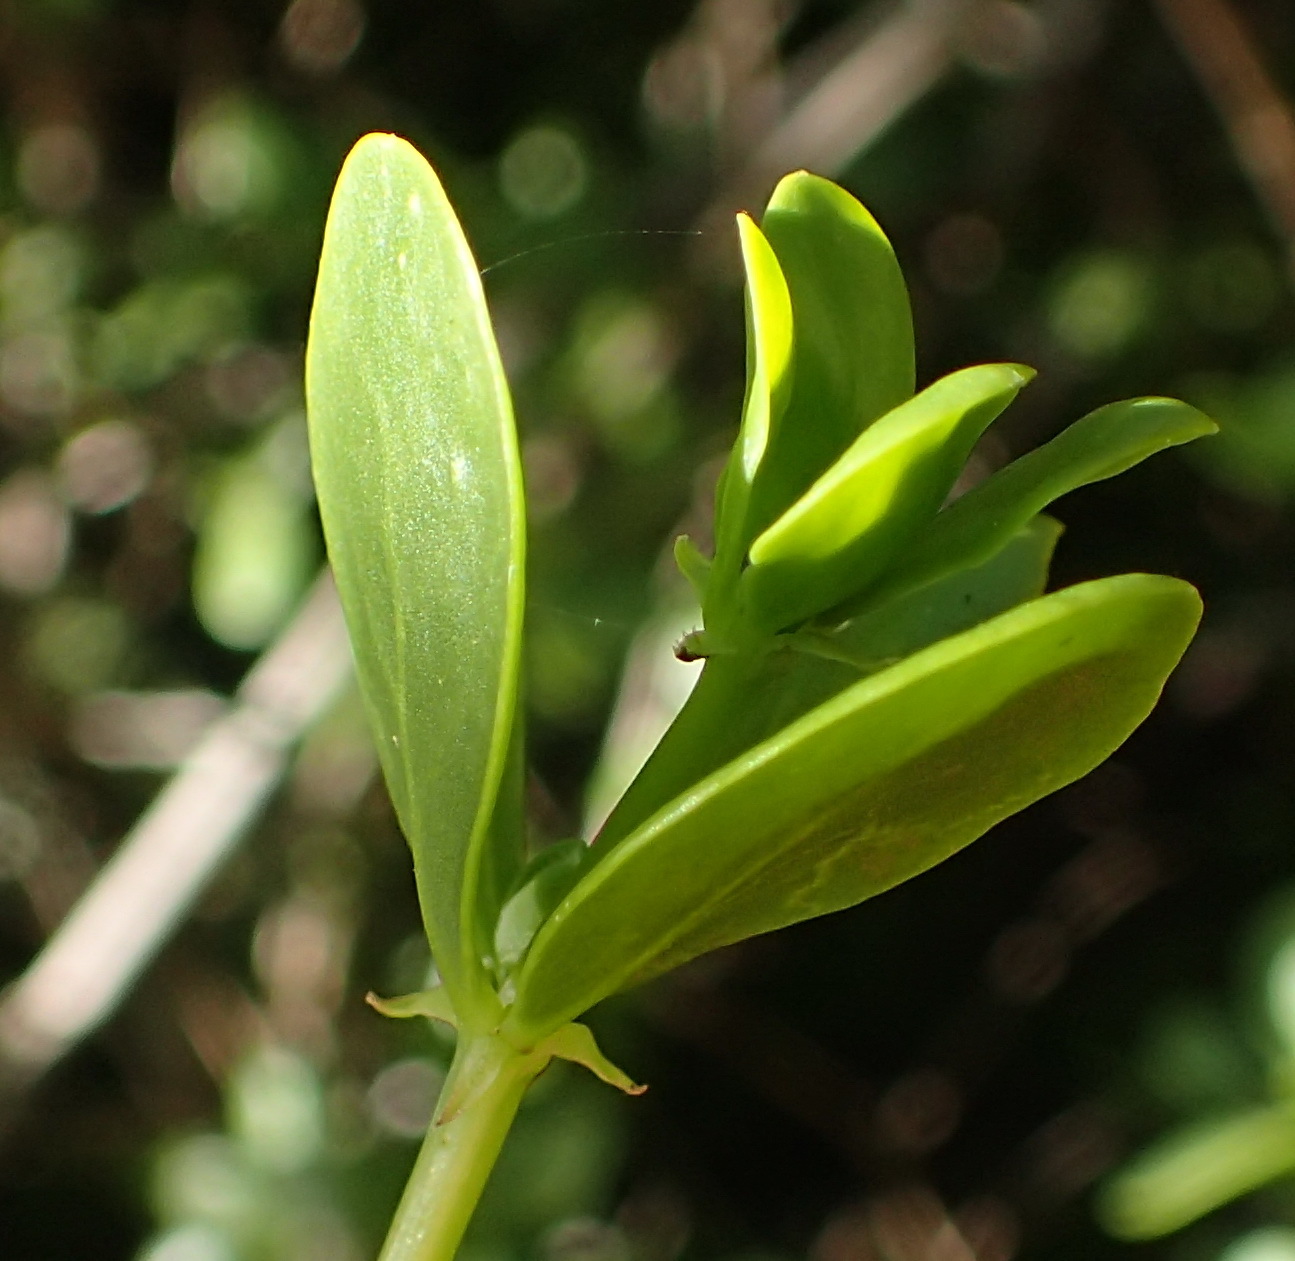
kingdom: Plantae
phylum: Tracheophyta
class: Magnoliopsida
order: Zygophyllales
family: Zygophyllaceae
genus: Roepera
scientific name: Roepera morgsana
